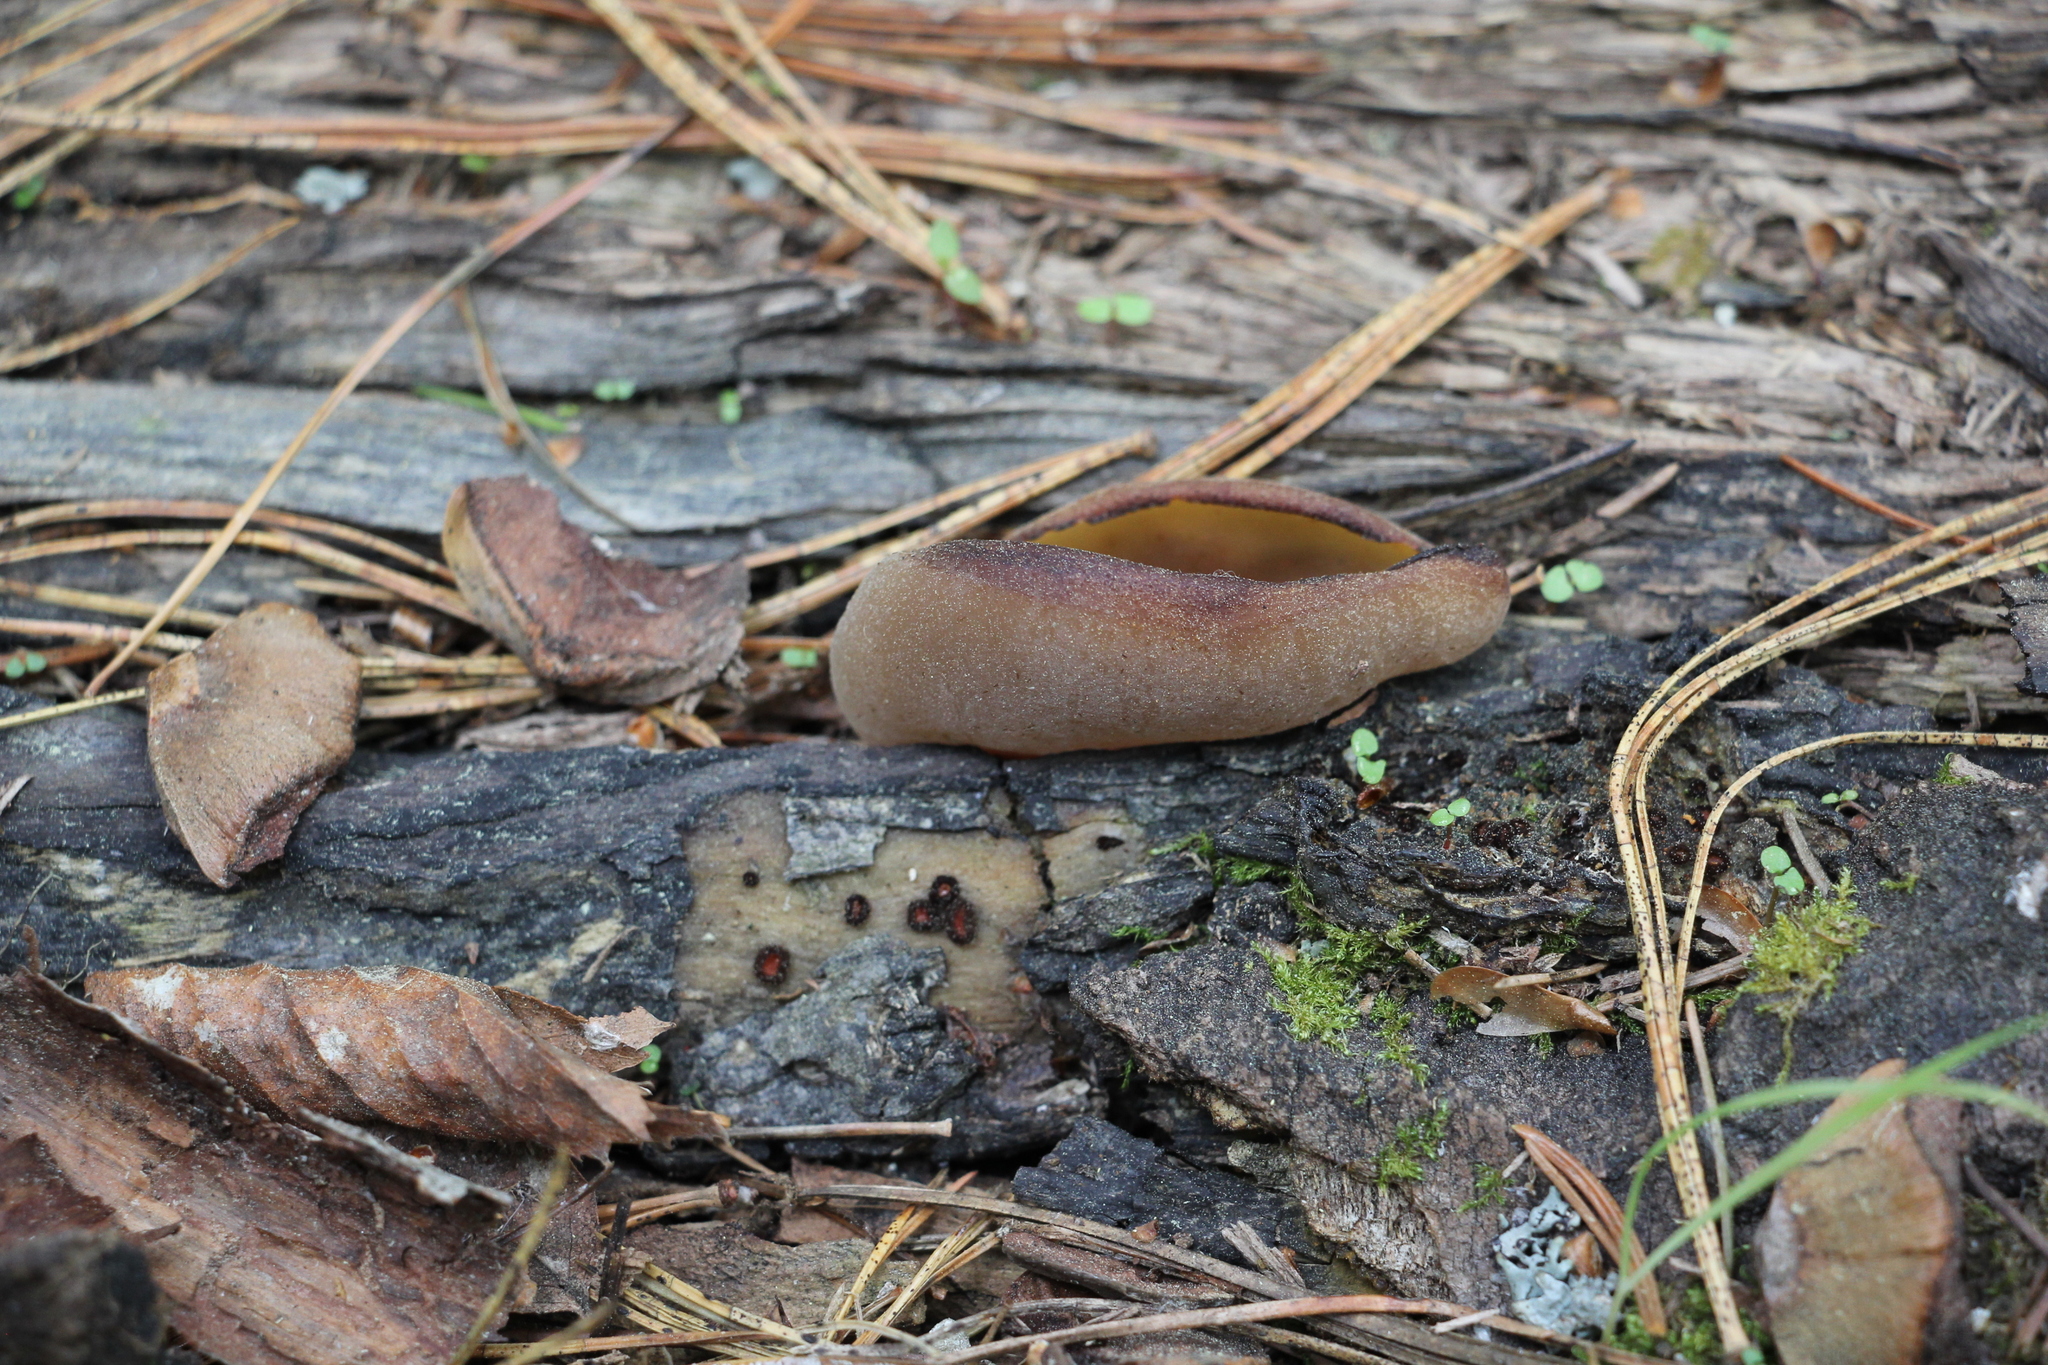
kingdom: Fungi
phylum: Ascomycota
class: Pezizomycetes
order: Pezizales
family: Pezizaceae
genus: Peziza
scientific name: Peziza varia
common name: Layered cup
